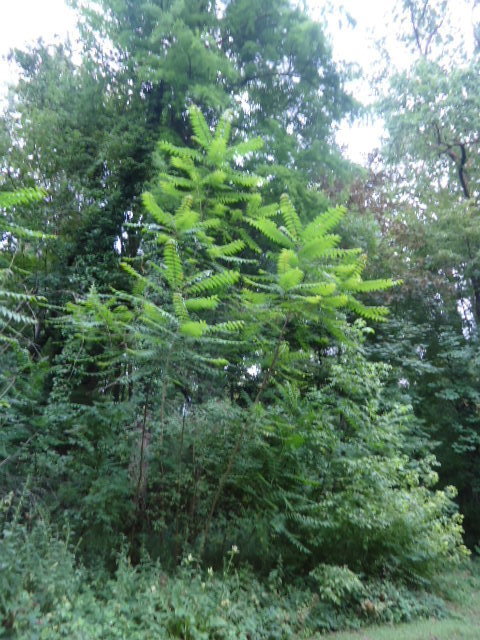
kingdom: Plantae
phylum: Tracheophyta
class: Magnoliopsida
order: Sapindales
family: Simaroubaceae
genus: Ailanthus
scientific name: Ailanthus altissima
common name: Tree-of-heaven
